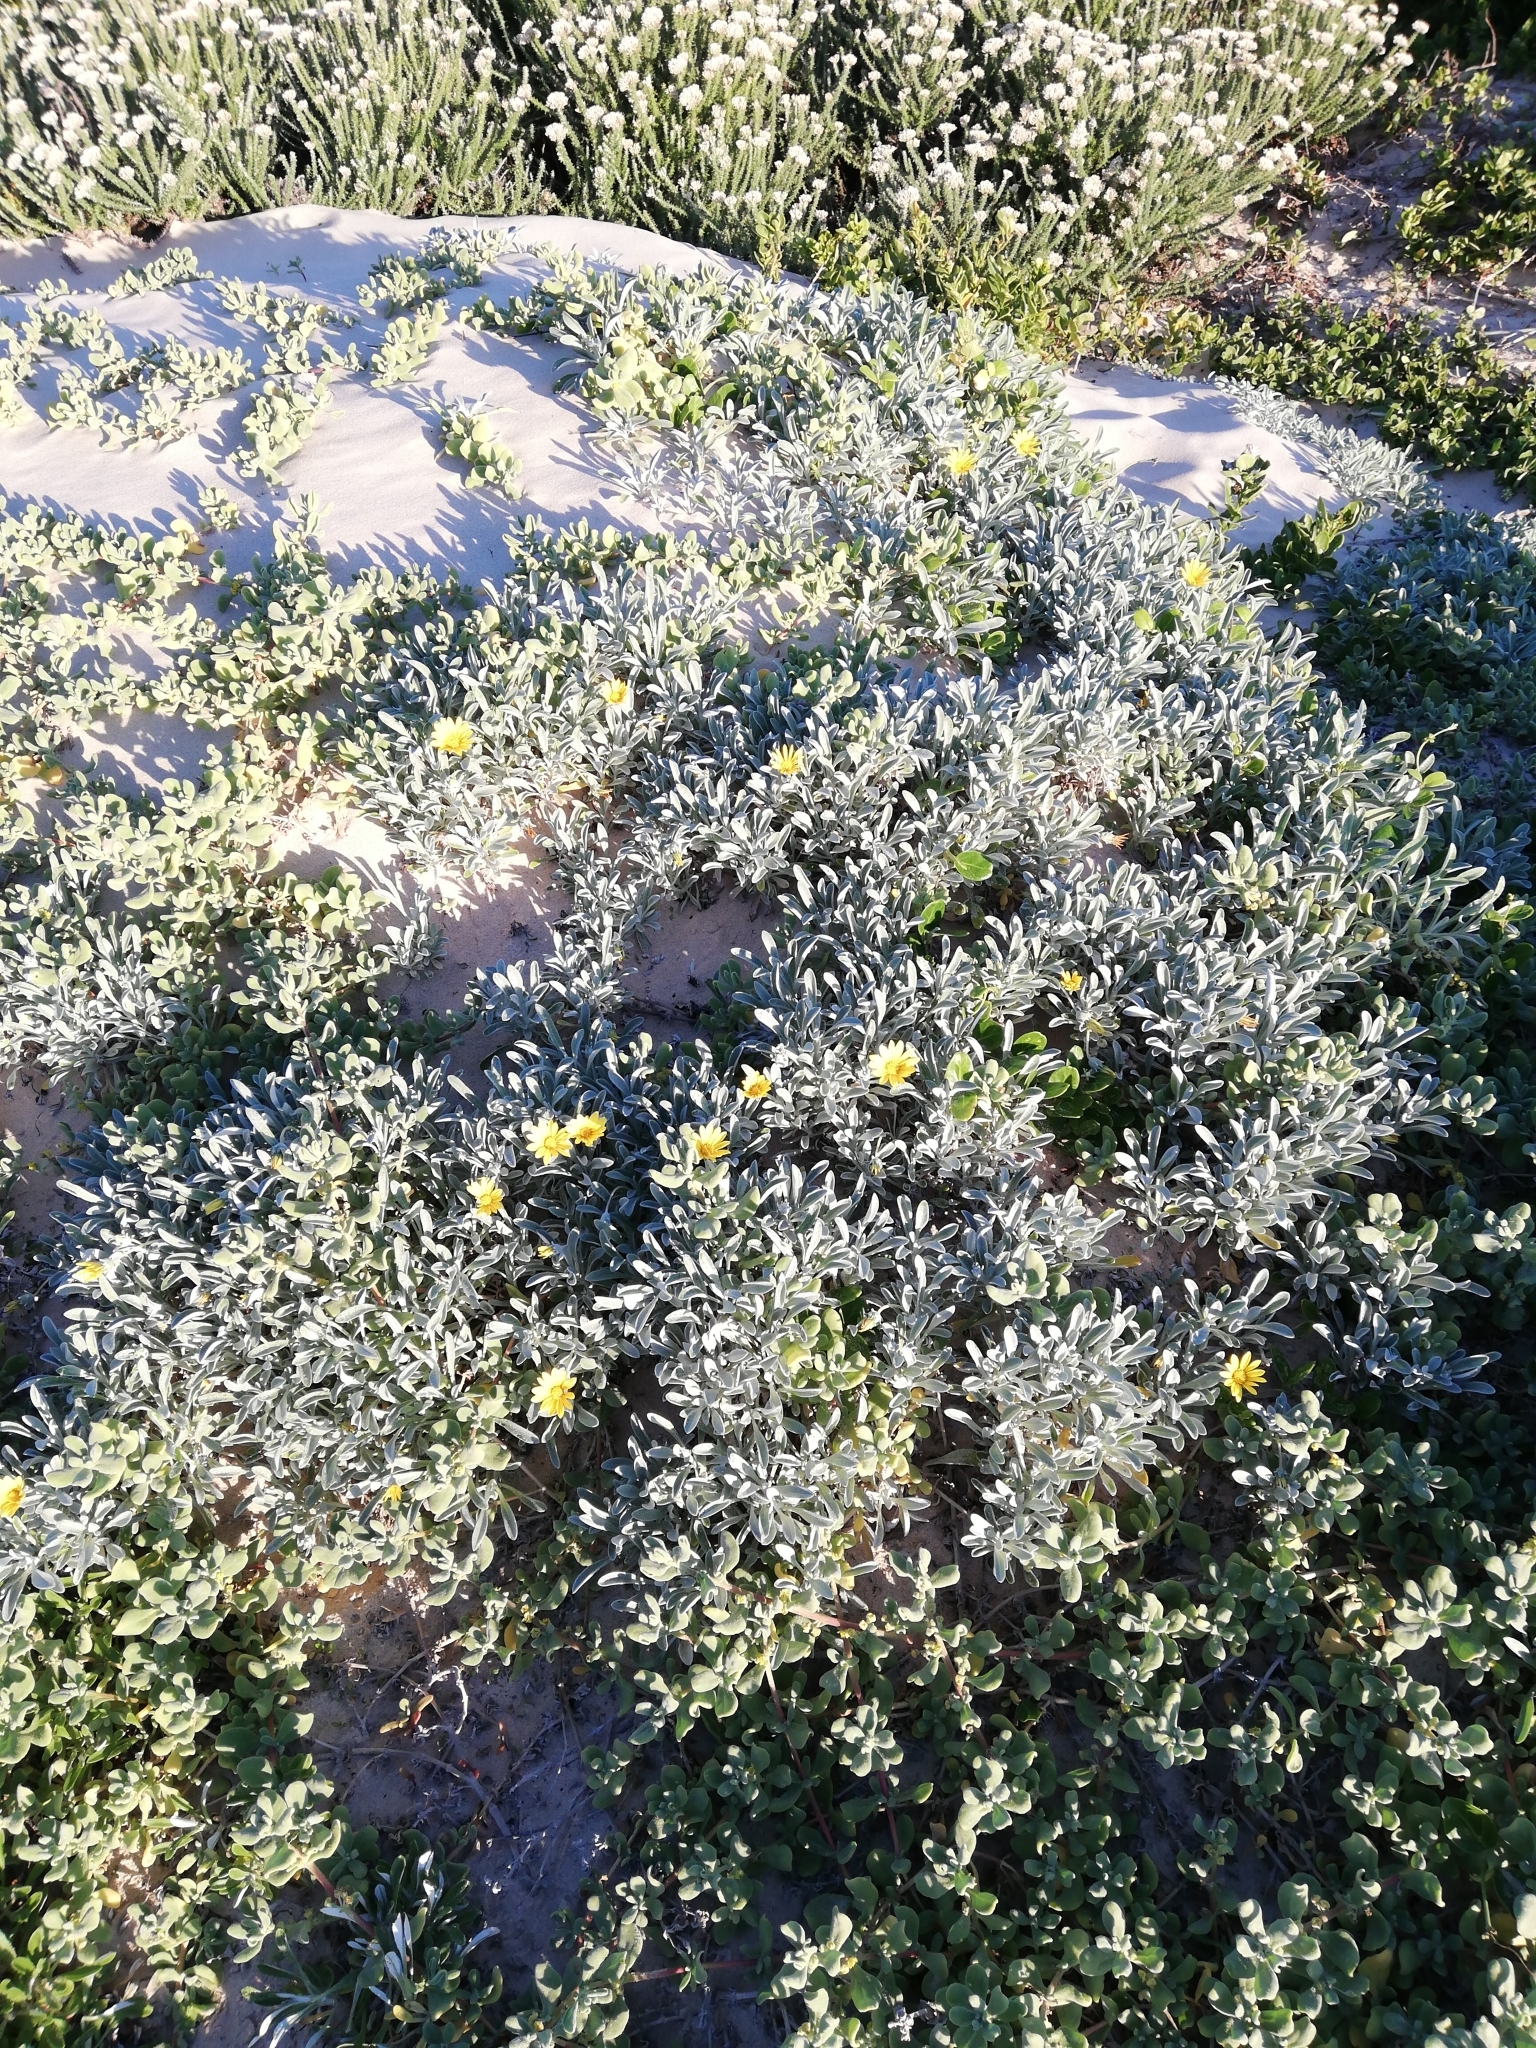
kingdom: Plantae
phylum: Tracheophyta
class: Magnoliopsida
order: Asterales
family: Asteraceae
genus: Gazania
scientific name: Gazania rigens
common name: Treasureflower
